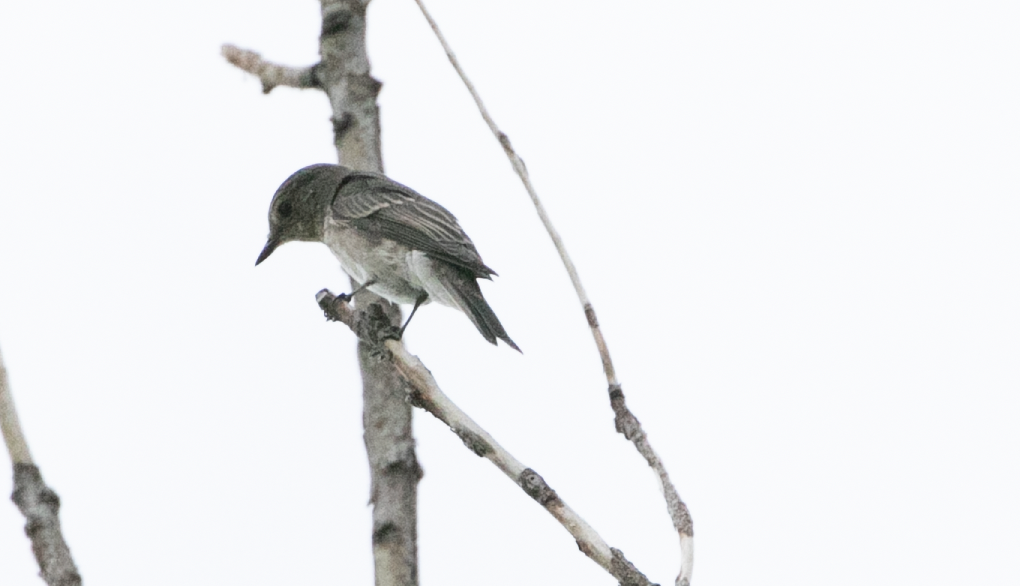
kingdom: Animalia
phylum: Chordata
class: Aves
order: Passeriformes
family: Muscicapidae
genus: Muscicapa
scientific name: Muscicapa striata
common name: Spotted flycatcher
